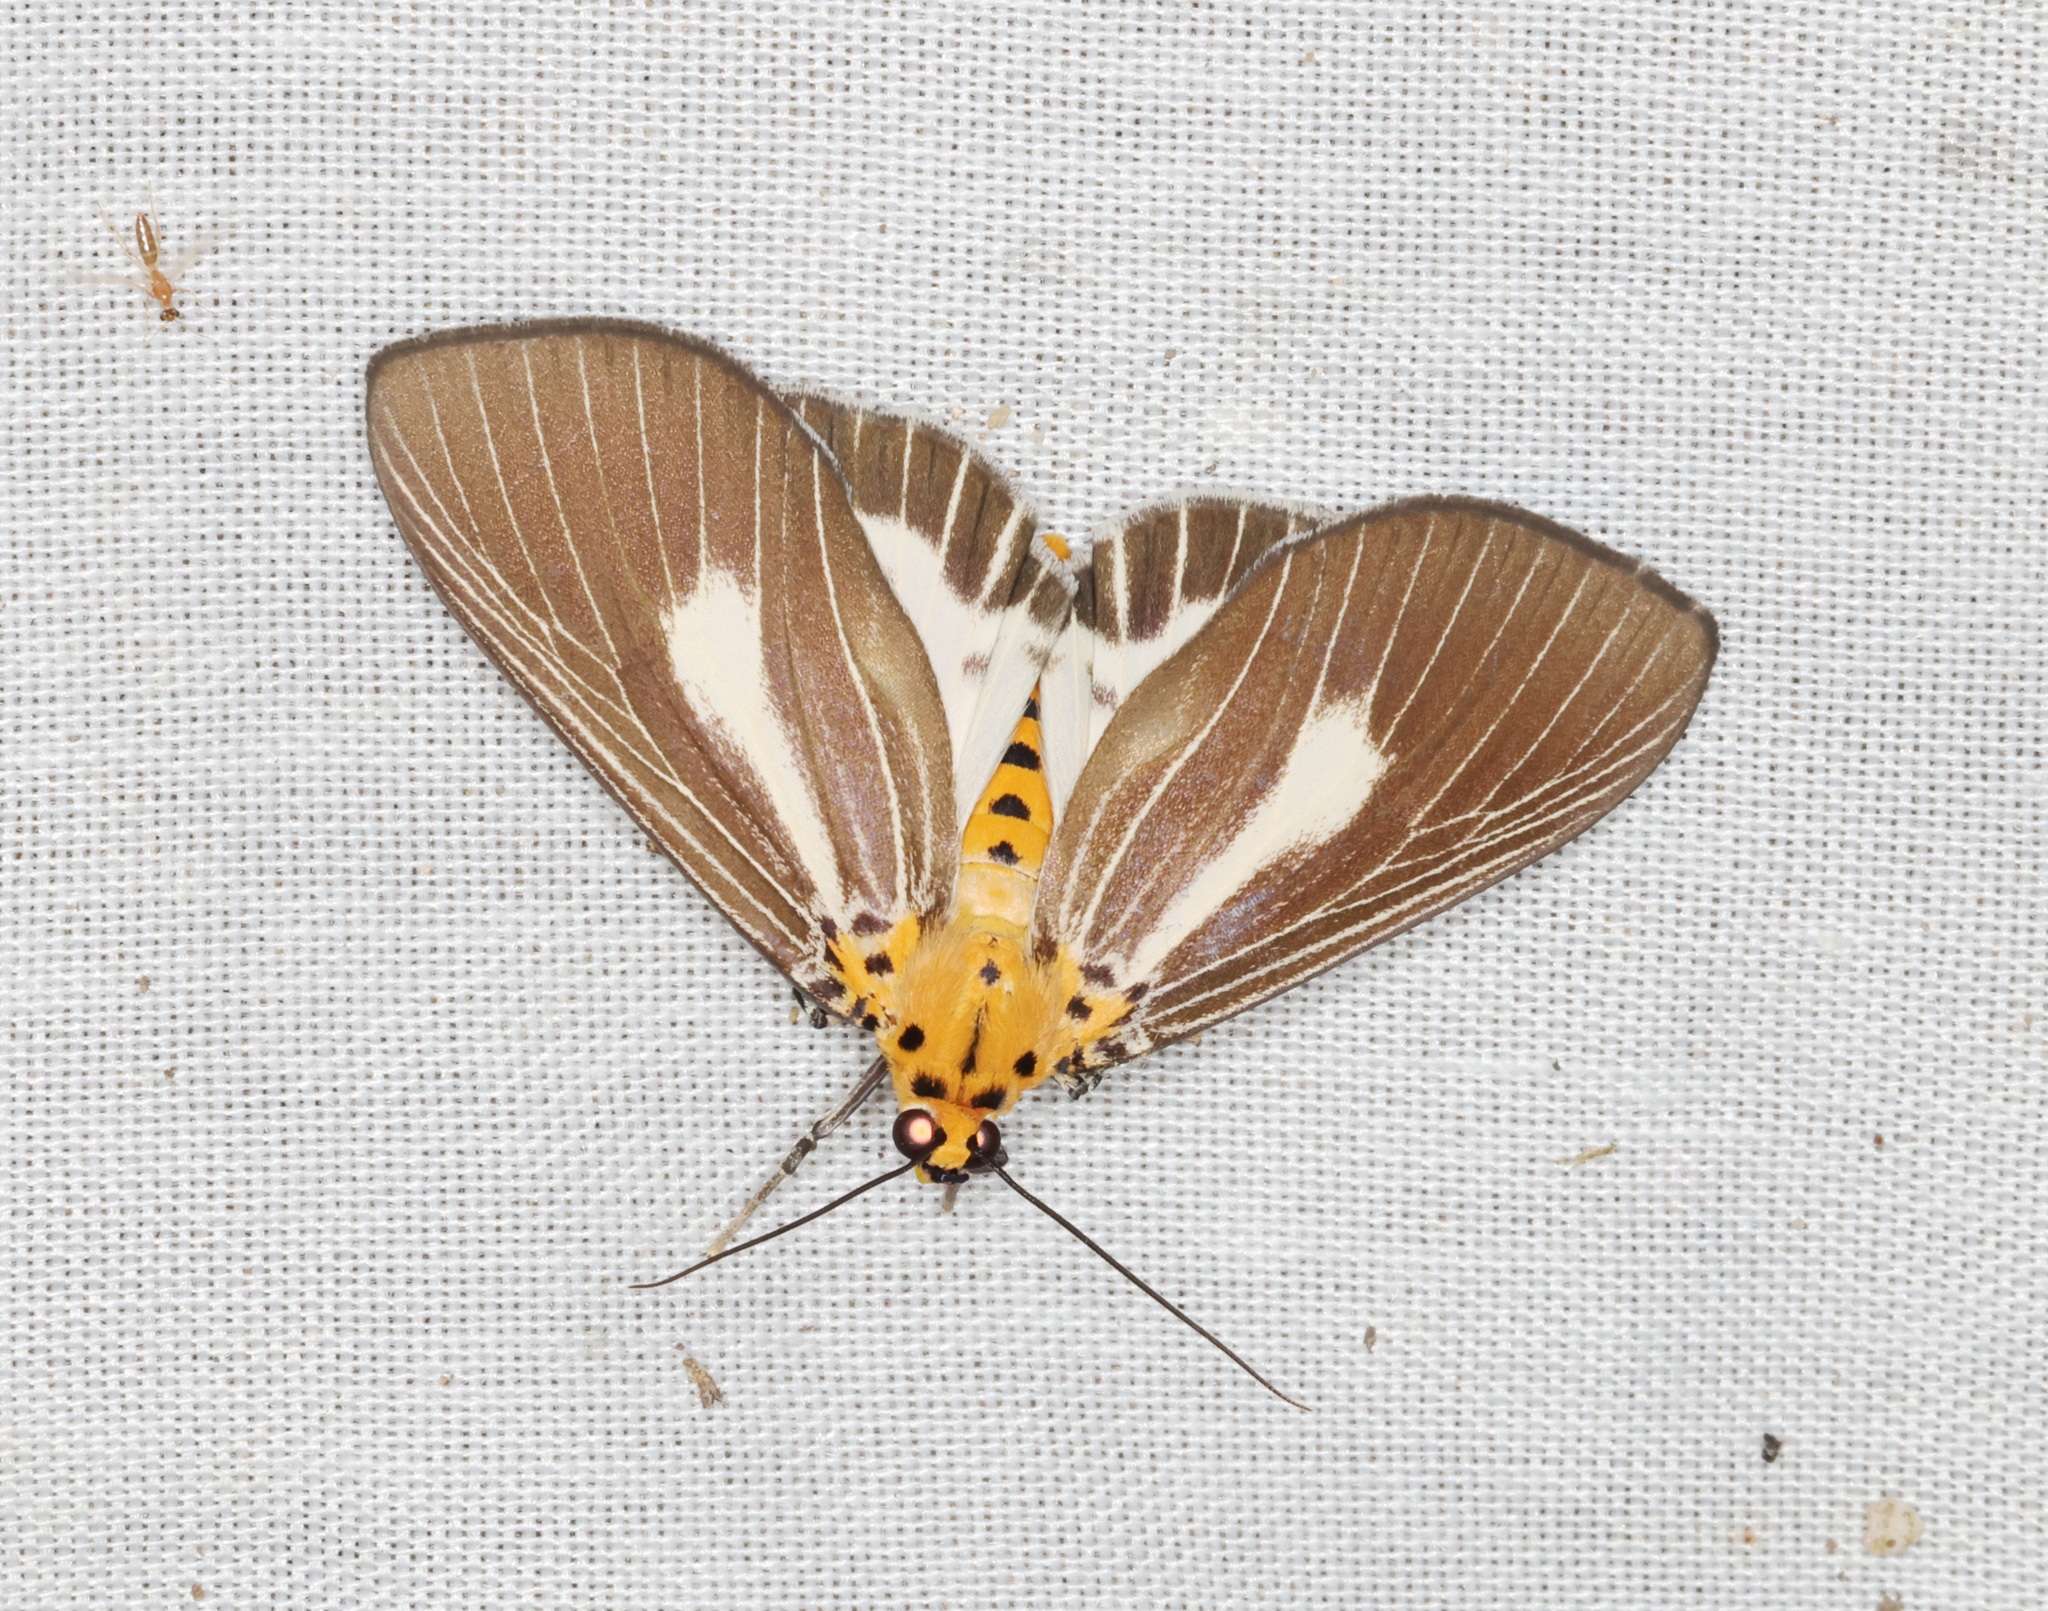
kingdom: Animalia
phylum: Arthropoda
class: Insecta
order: Lepidoptera
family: Erebidae
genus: Asota
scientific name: Asota heliconia
